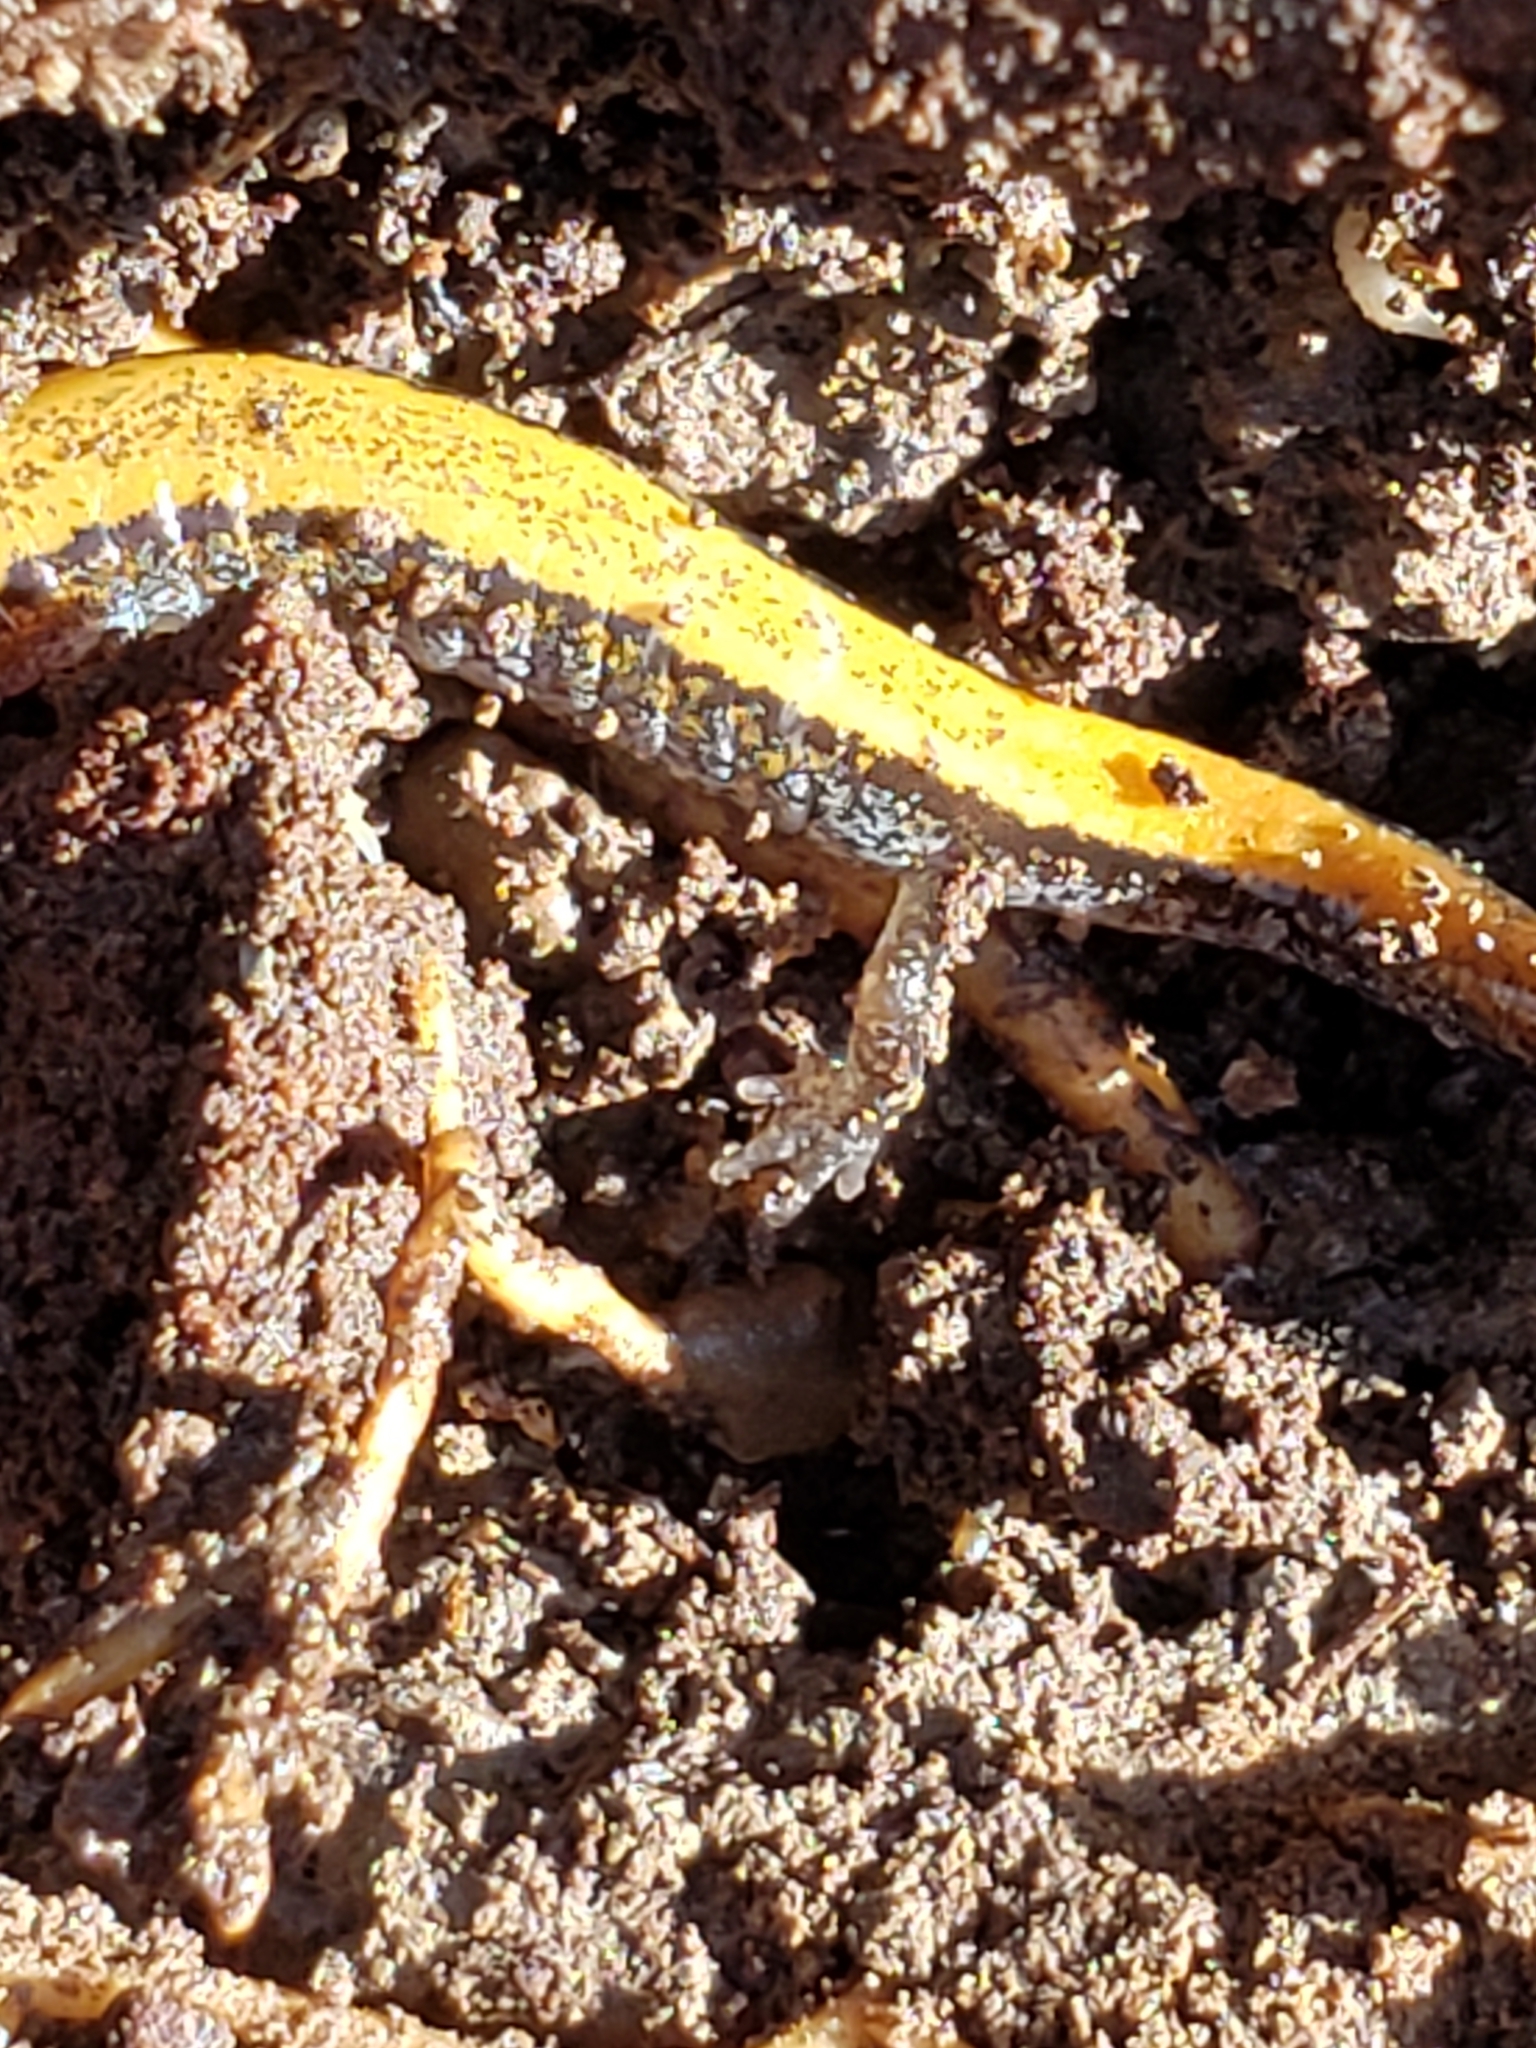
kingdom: Animalia
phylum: Chordata
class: Amphibia
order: Caudata
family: Plethodontidae
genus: Plethodon
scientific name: Plethodon cinereus
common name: Redback salamander
